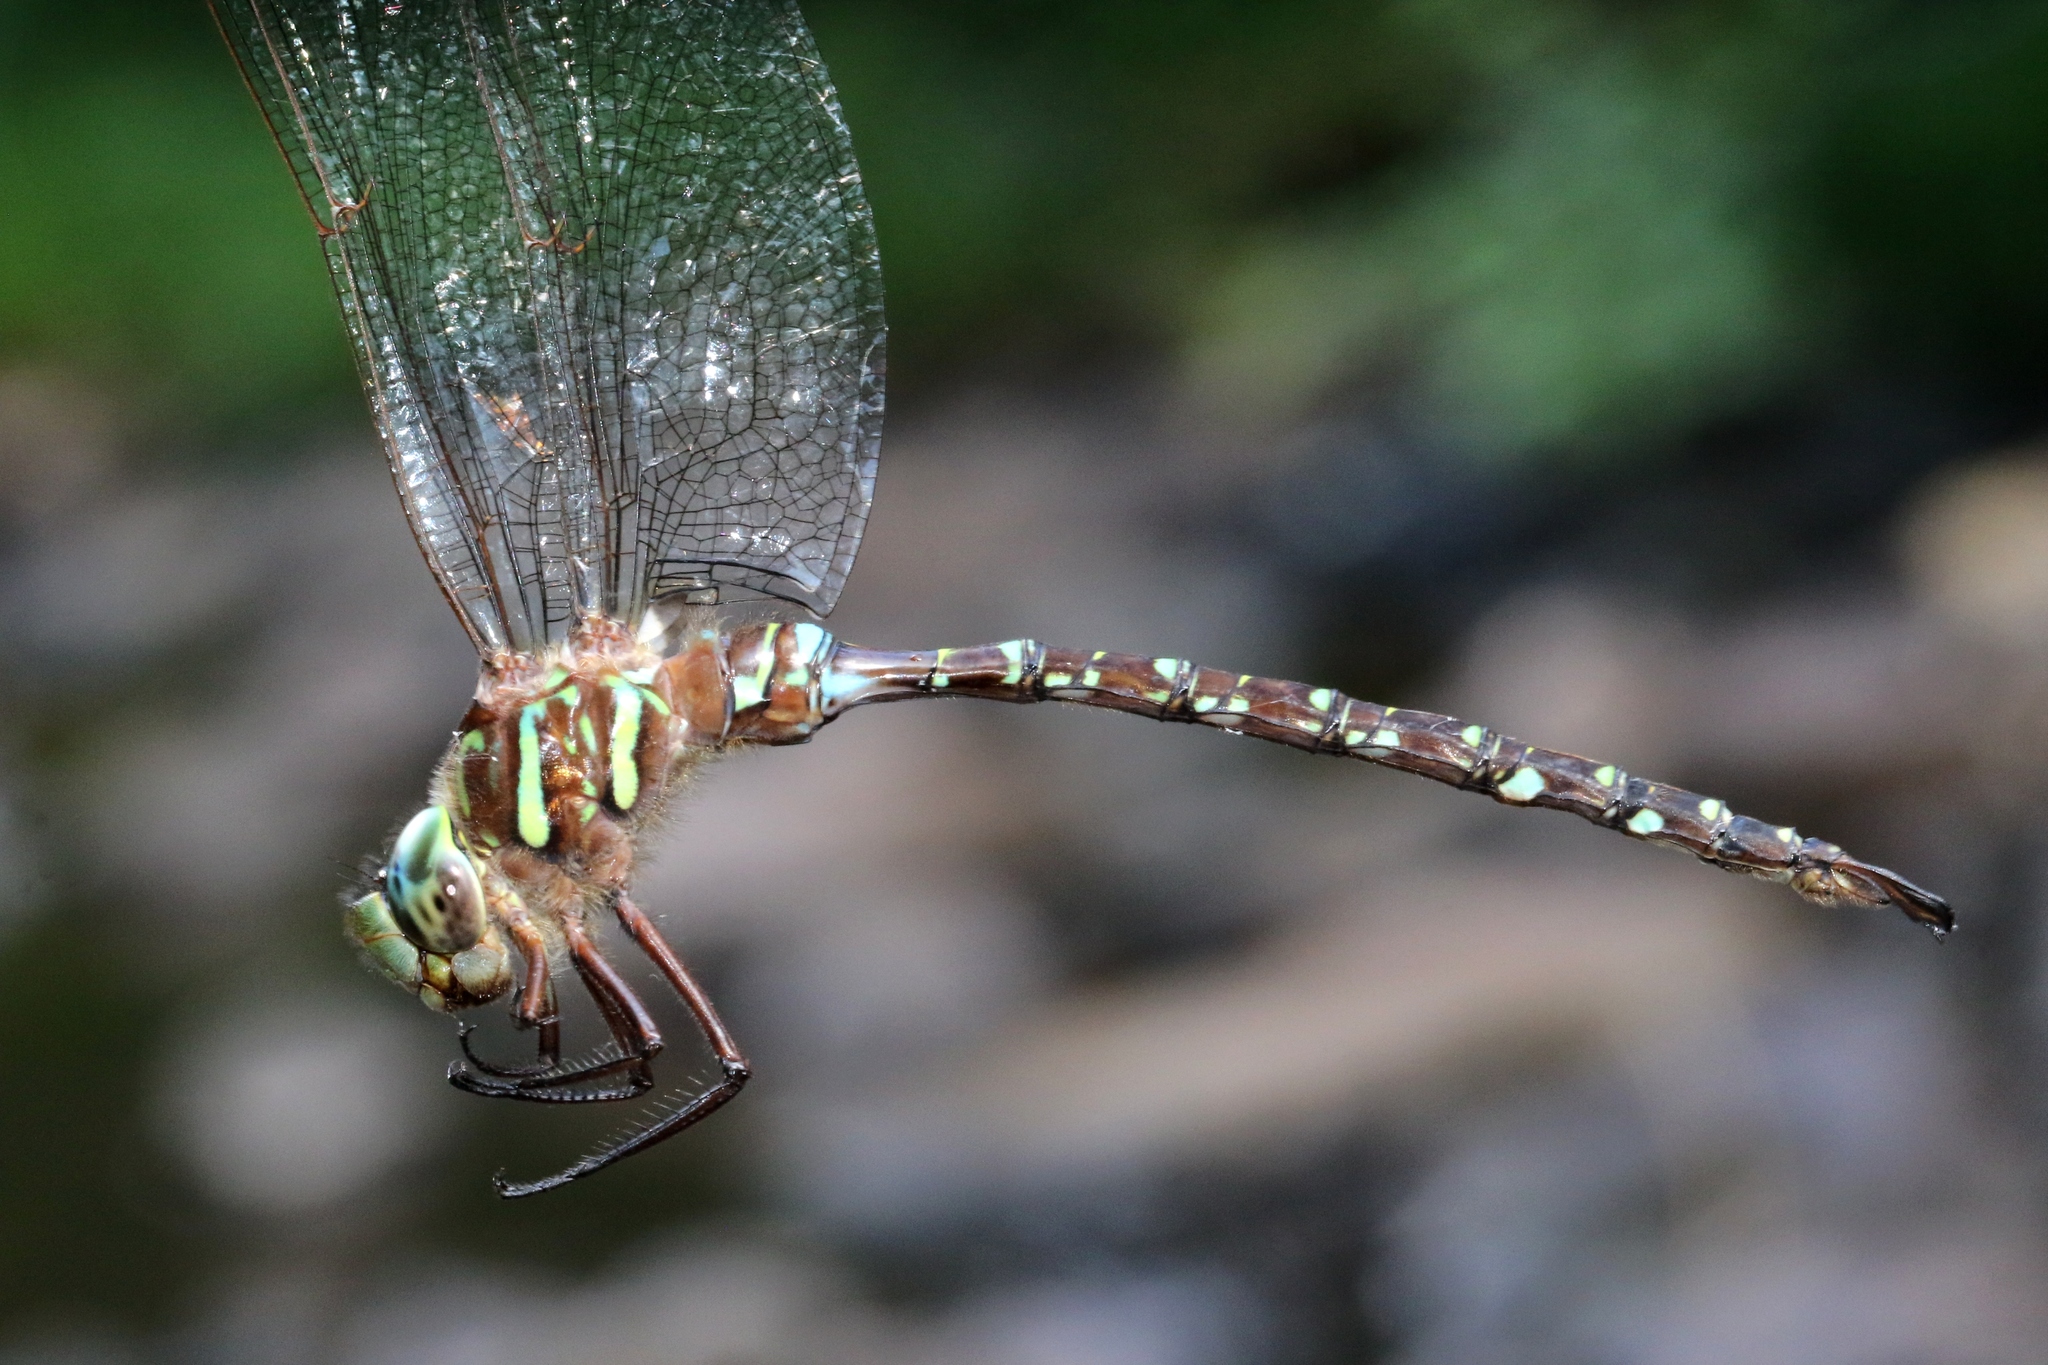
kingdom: Animalia
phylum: Arthropoda
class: Insecta
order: Odonata
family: Aeshnidae
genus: Aeshna
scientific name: Aeshna umbrosa
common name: Shadow darner
